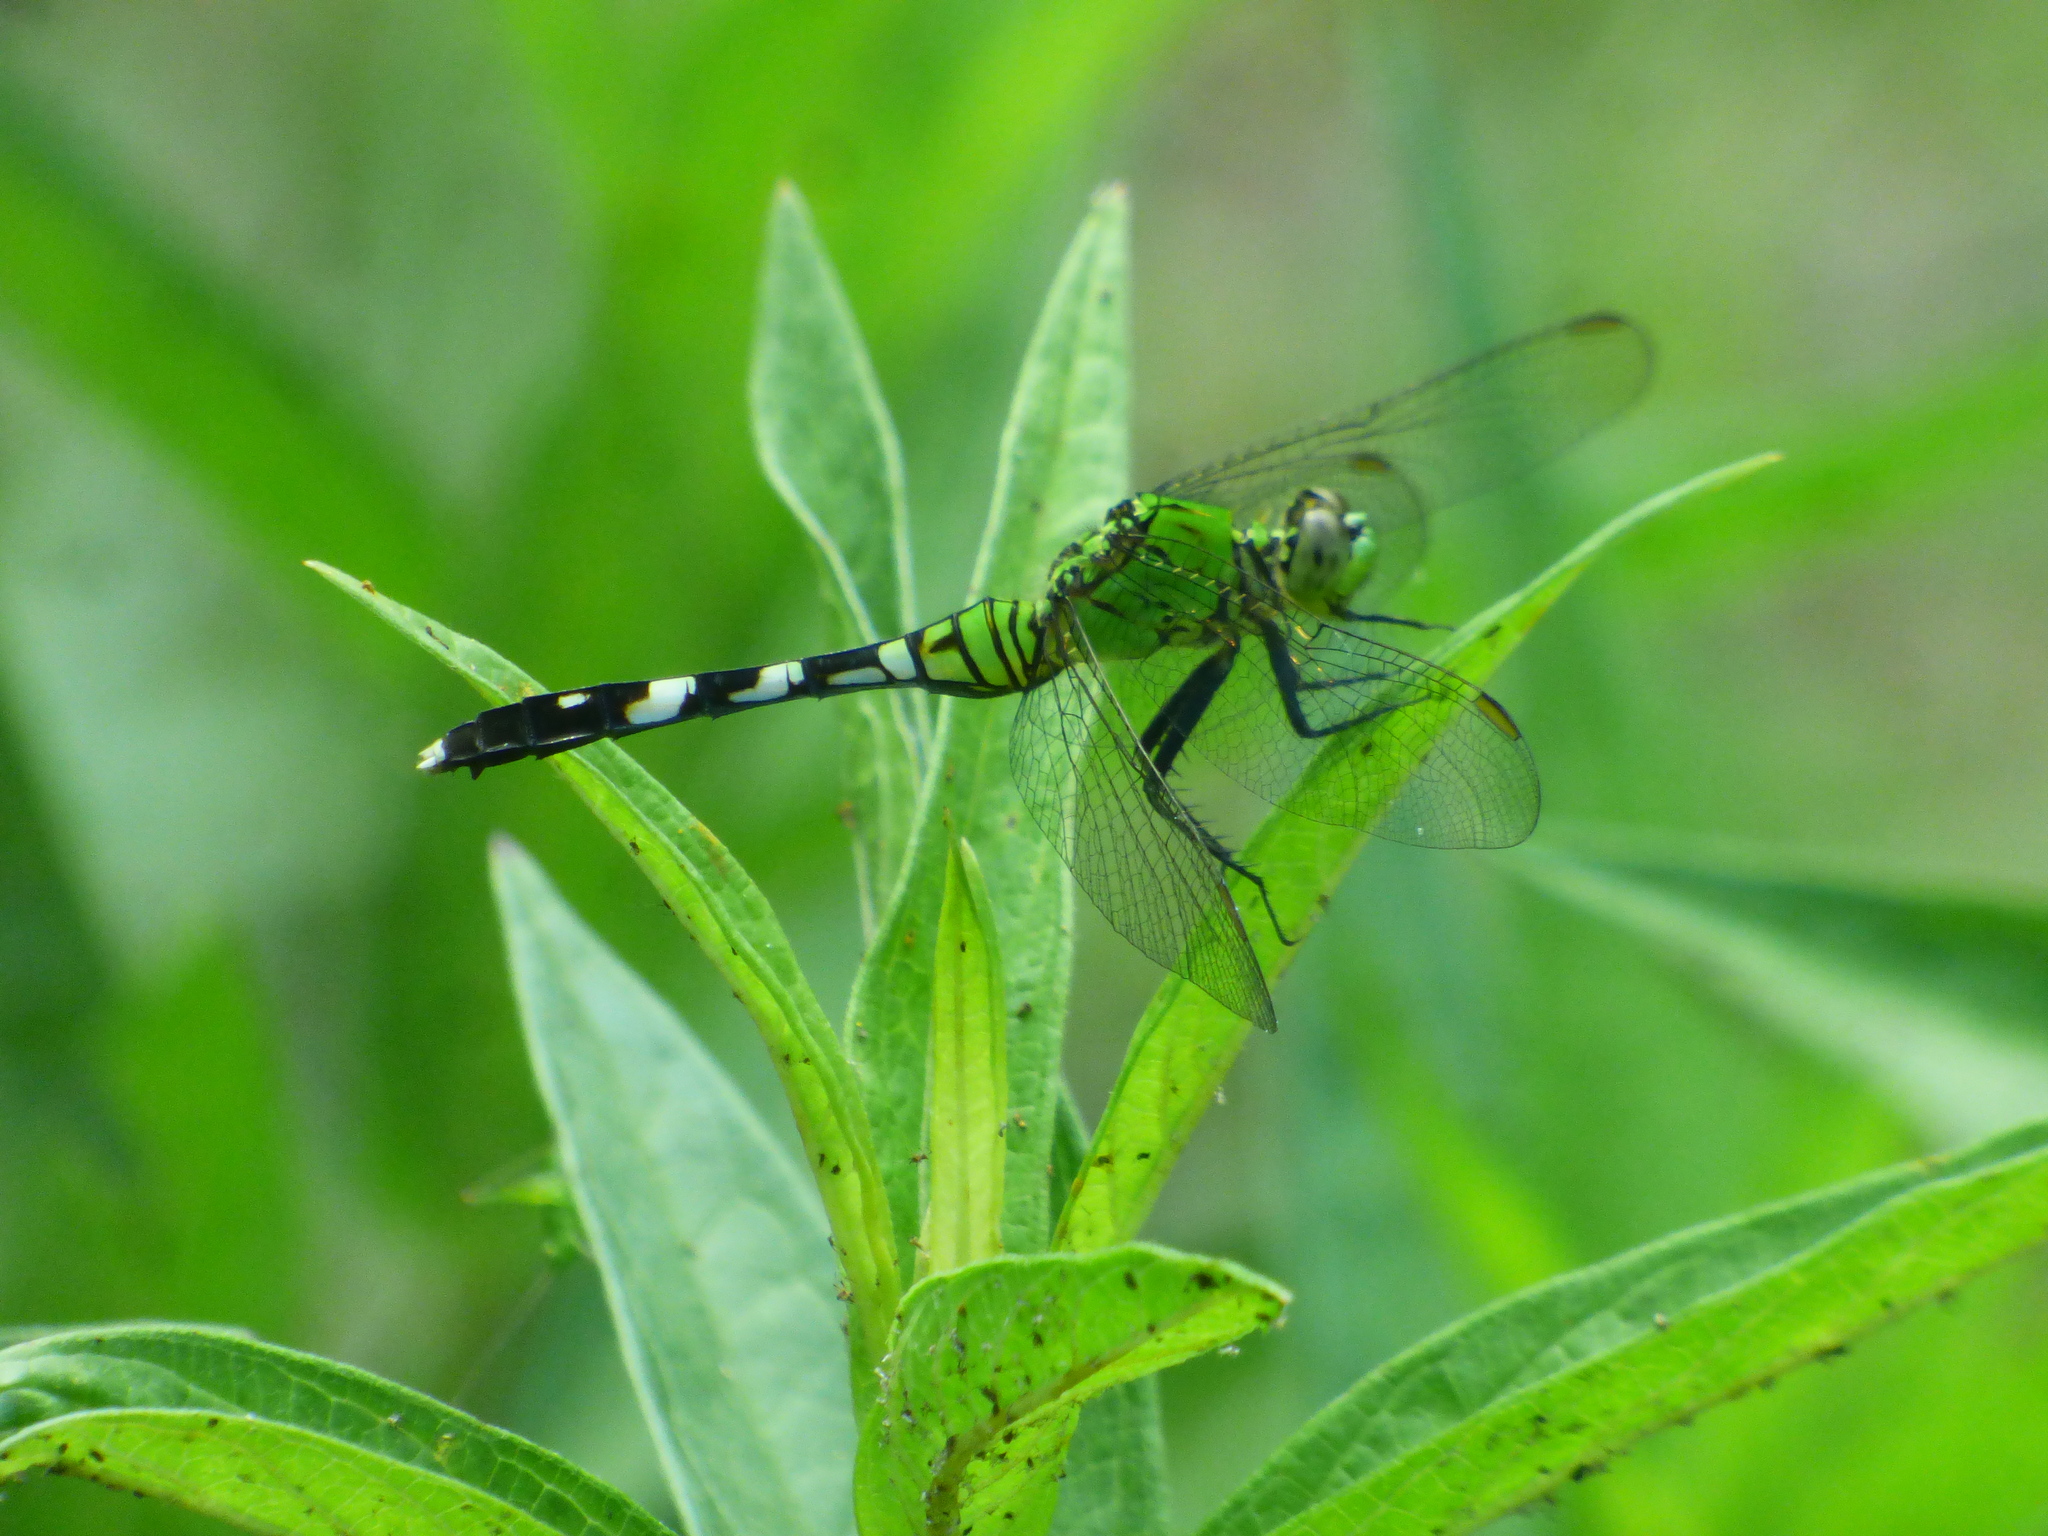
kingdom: Animalia
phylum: Arthropoda
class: Insecta
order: Odonata
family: Libellulidae
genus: Erythemis
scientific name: Erythemis simplicicollis
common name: Eastern pondhawk
